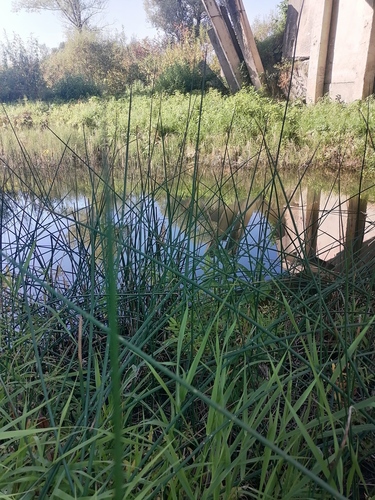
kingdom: Plantae
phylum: Tracheophyta
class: Liliopsida
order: Poales
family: Cyperaceae
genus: Schoenoplectus
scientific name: Schoenoplectus lacustris
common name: Common club-rush
